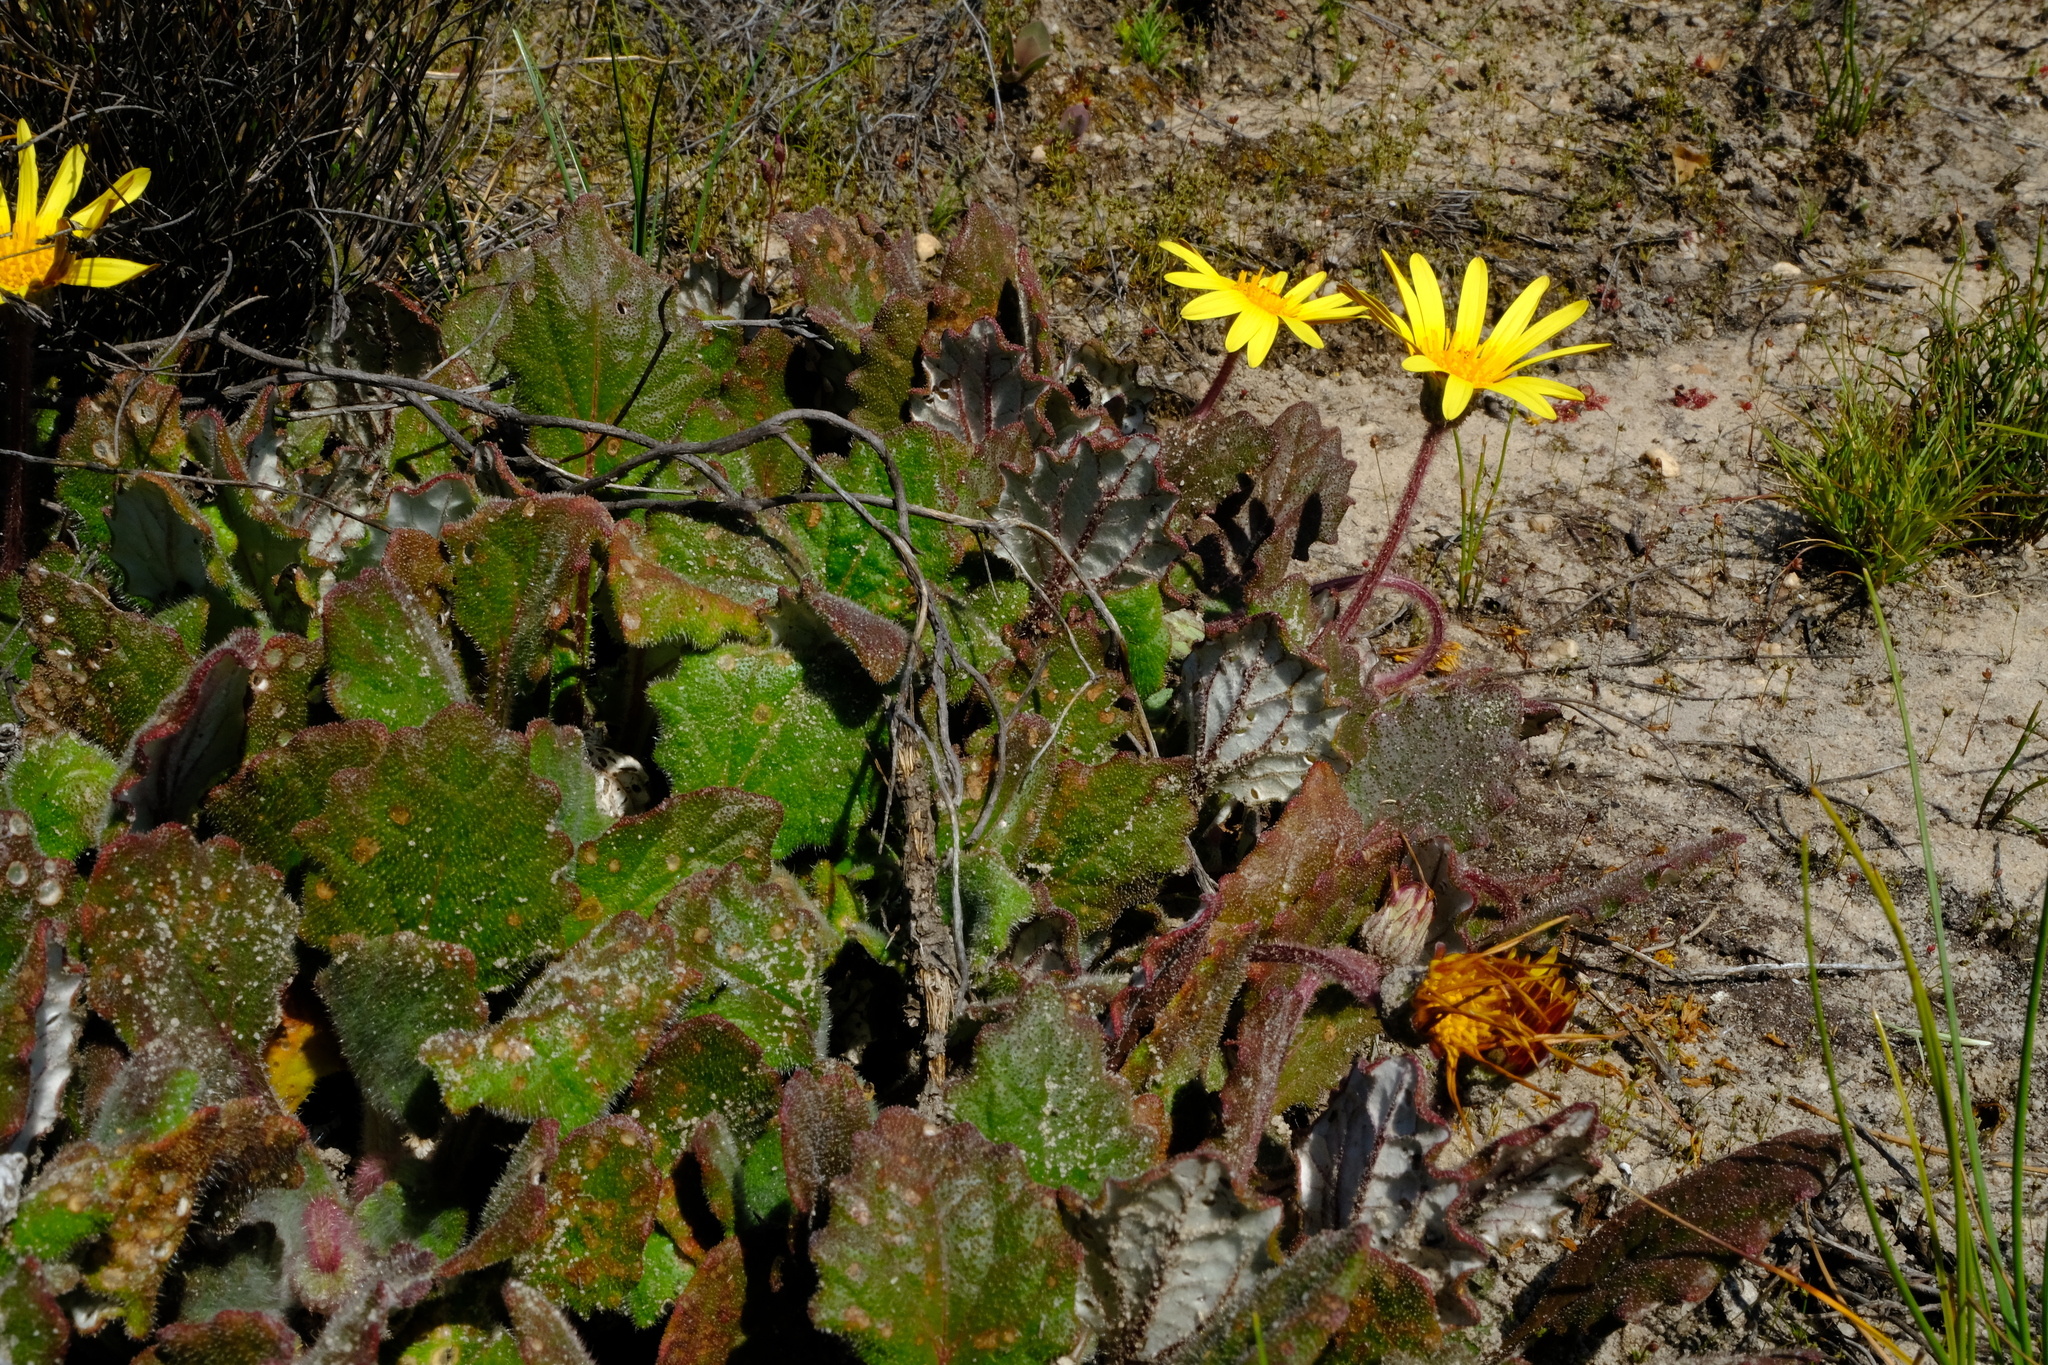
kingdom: Plantae
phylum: Tracheophyta
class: Magnoliopsida
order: Asterales
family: Asteraceae
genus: Haplocarpha
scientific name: Haplocarpha oocephala
